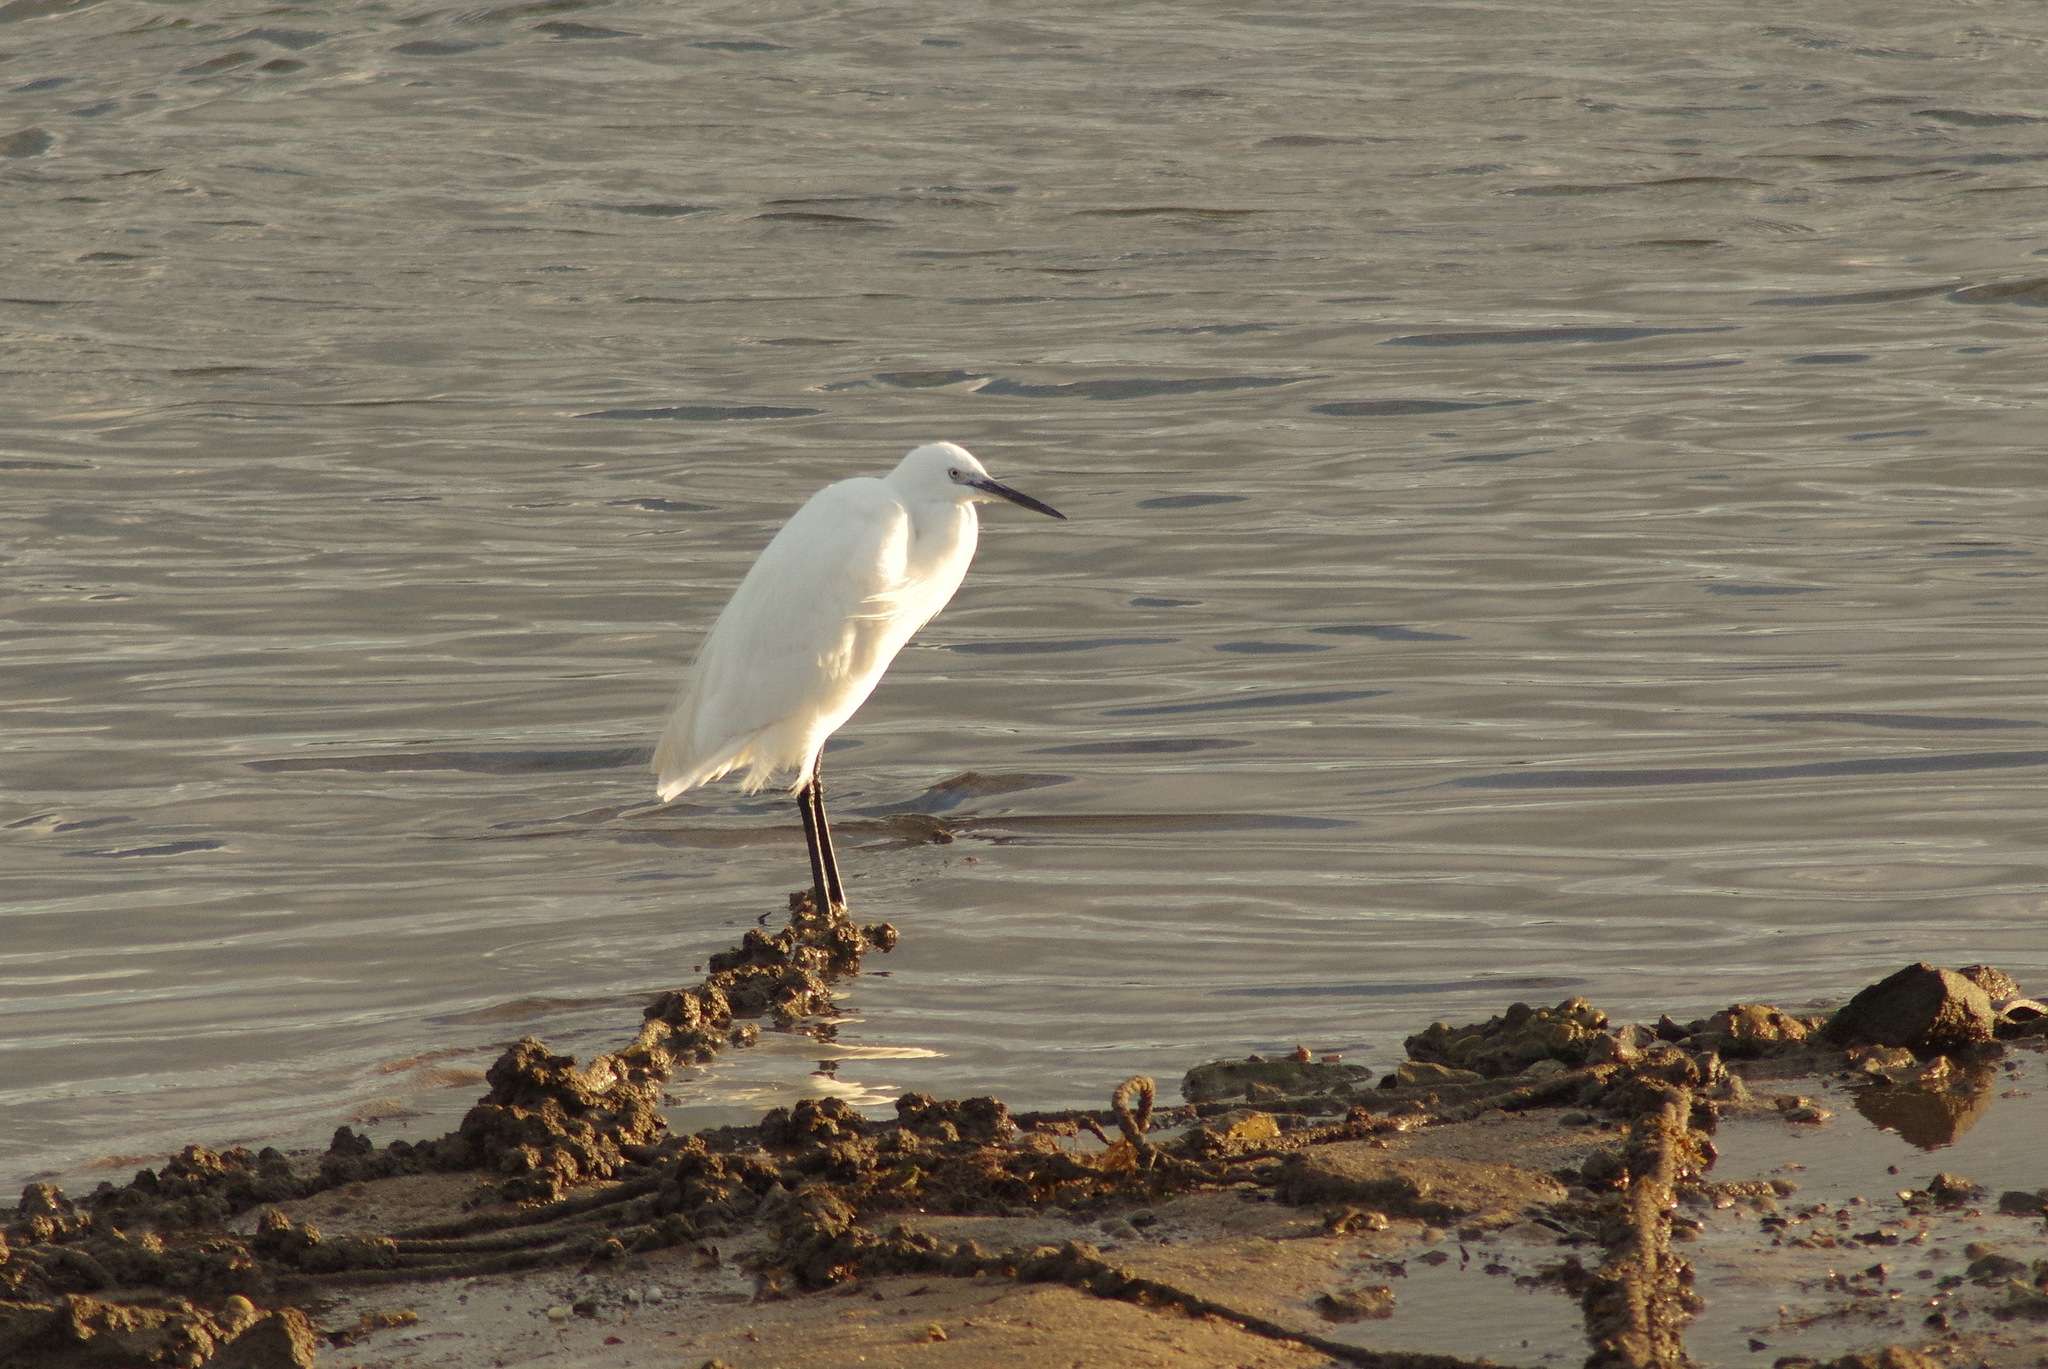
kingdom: Animalia
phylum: Chordata
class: Aves
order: Pelecaniformes
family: Ardeidae
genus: Egretta
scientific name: Egretta garzetta
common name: Little egret
